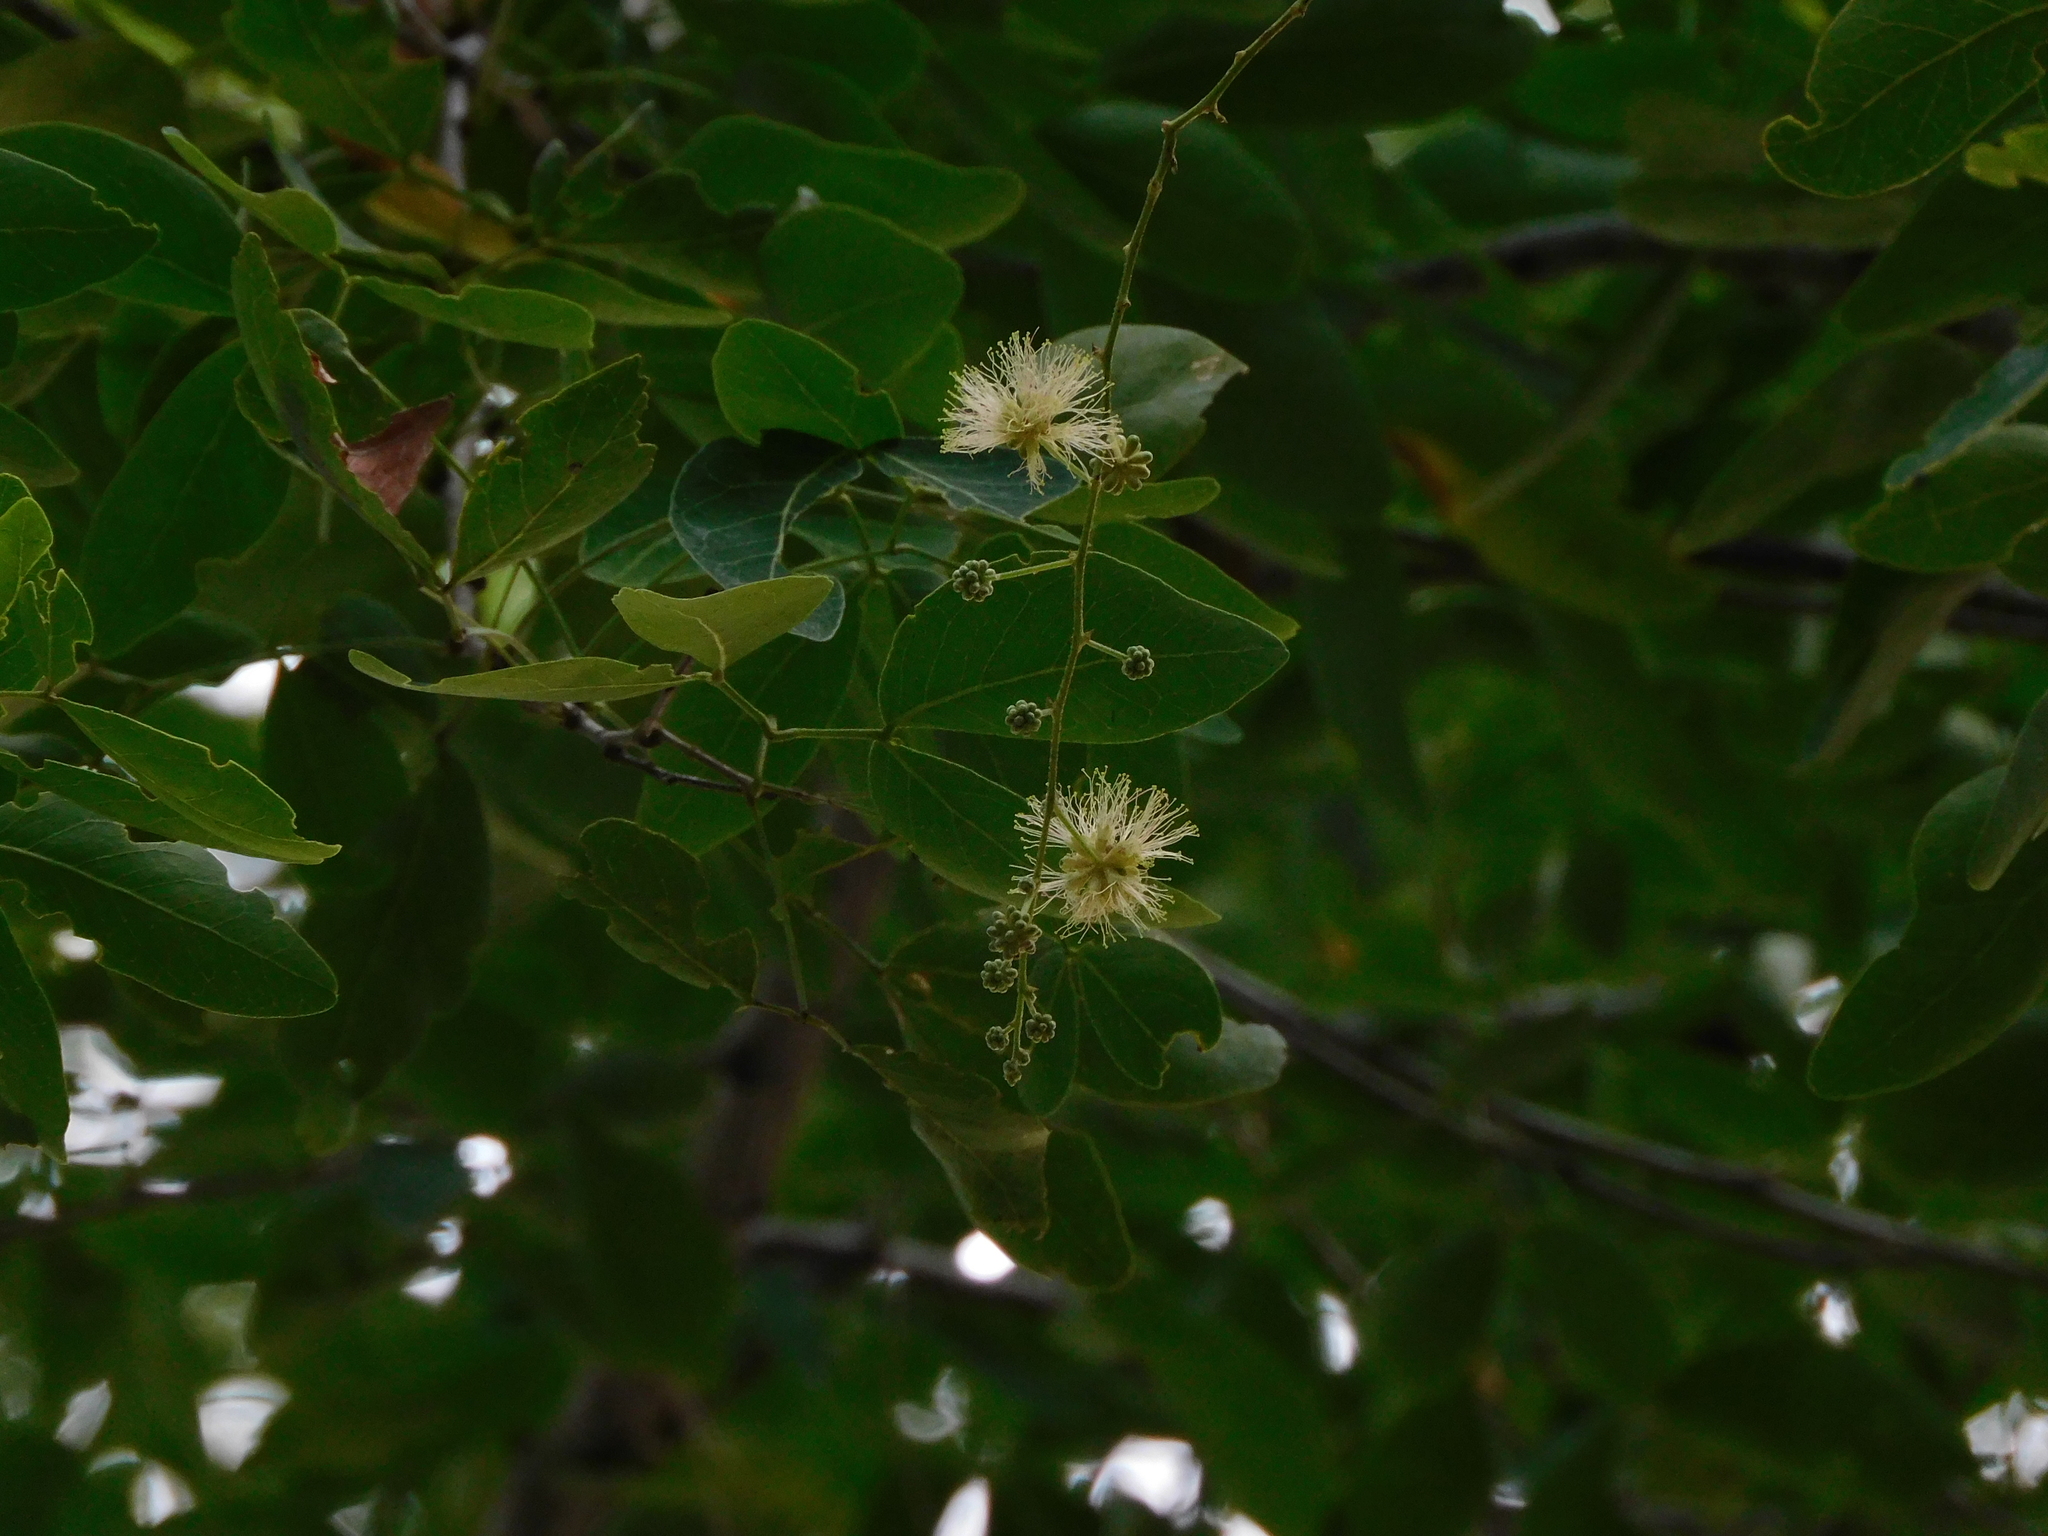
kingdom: Plantae
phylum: Tracheophyta
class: Magnoliopsida
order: Fabales
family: Fabaceae
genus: Pithecellobium
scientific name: Pithecellobium dulce
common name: Monkeypod
